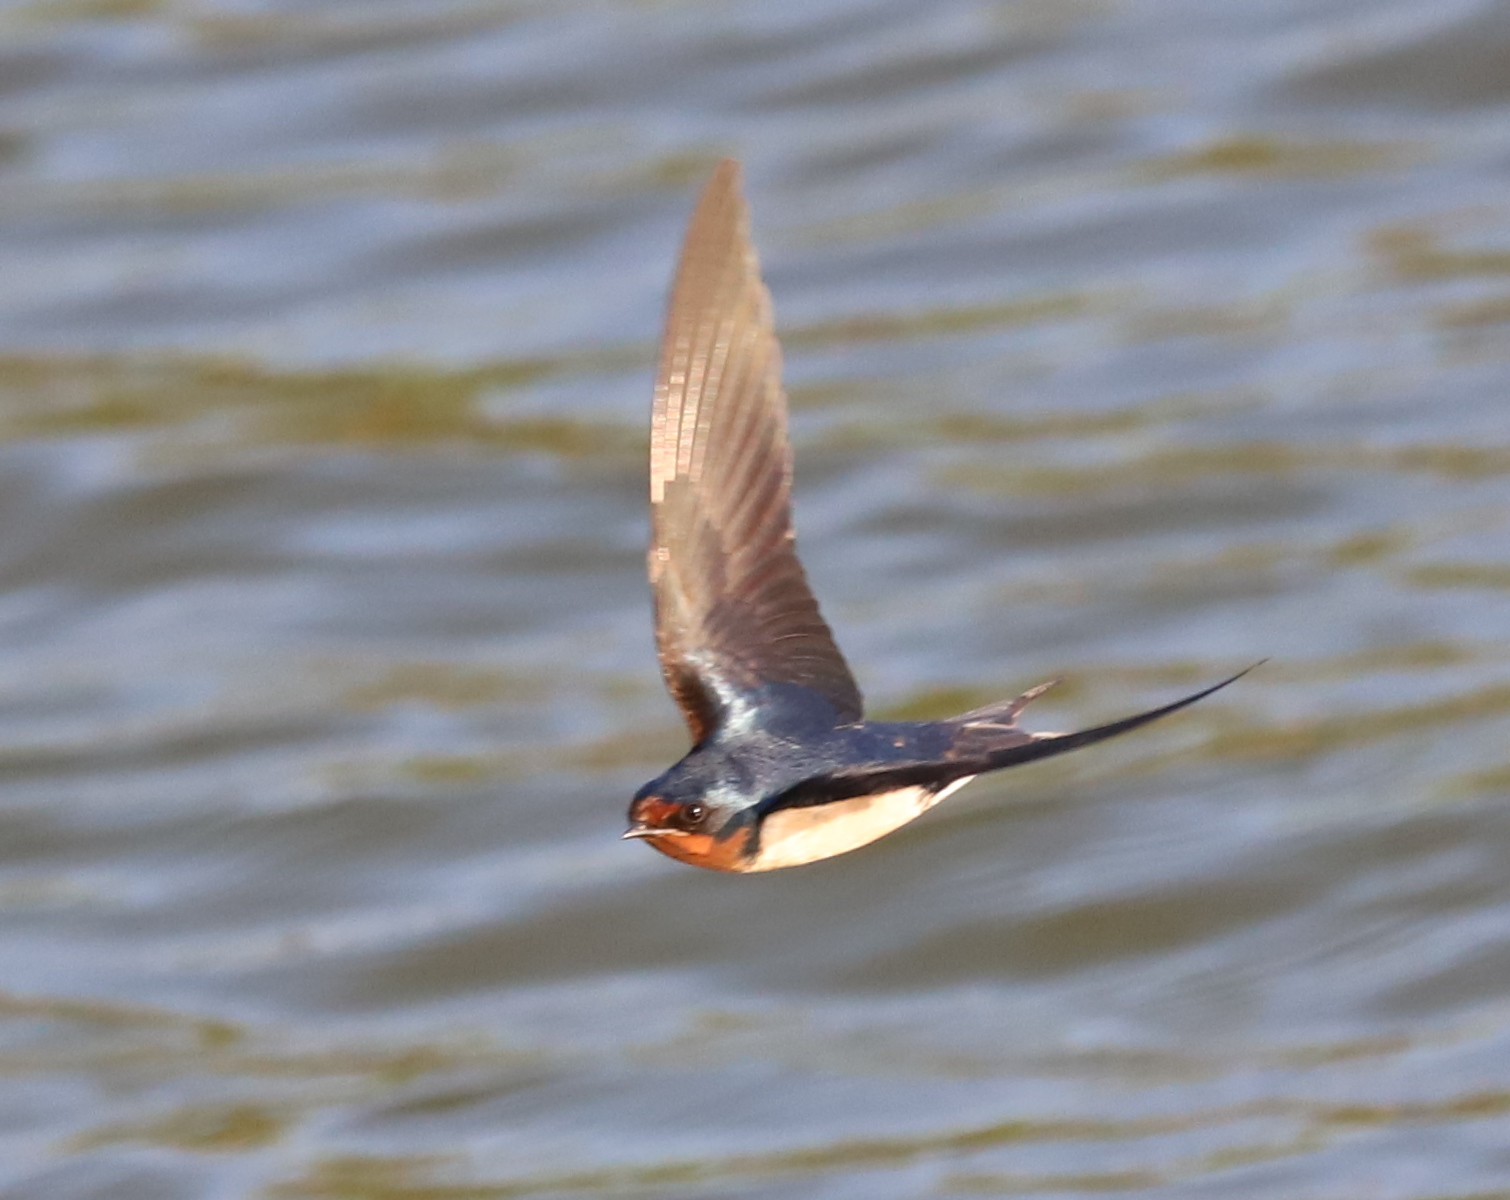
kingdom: Animalia
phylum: Chordata
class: Aves
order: Passeriformes
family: Hirundinidae
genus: Hirundo
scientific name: Hirundo rustica
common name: Barn swallow
